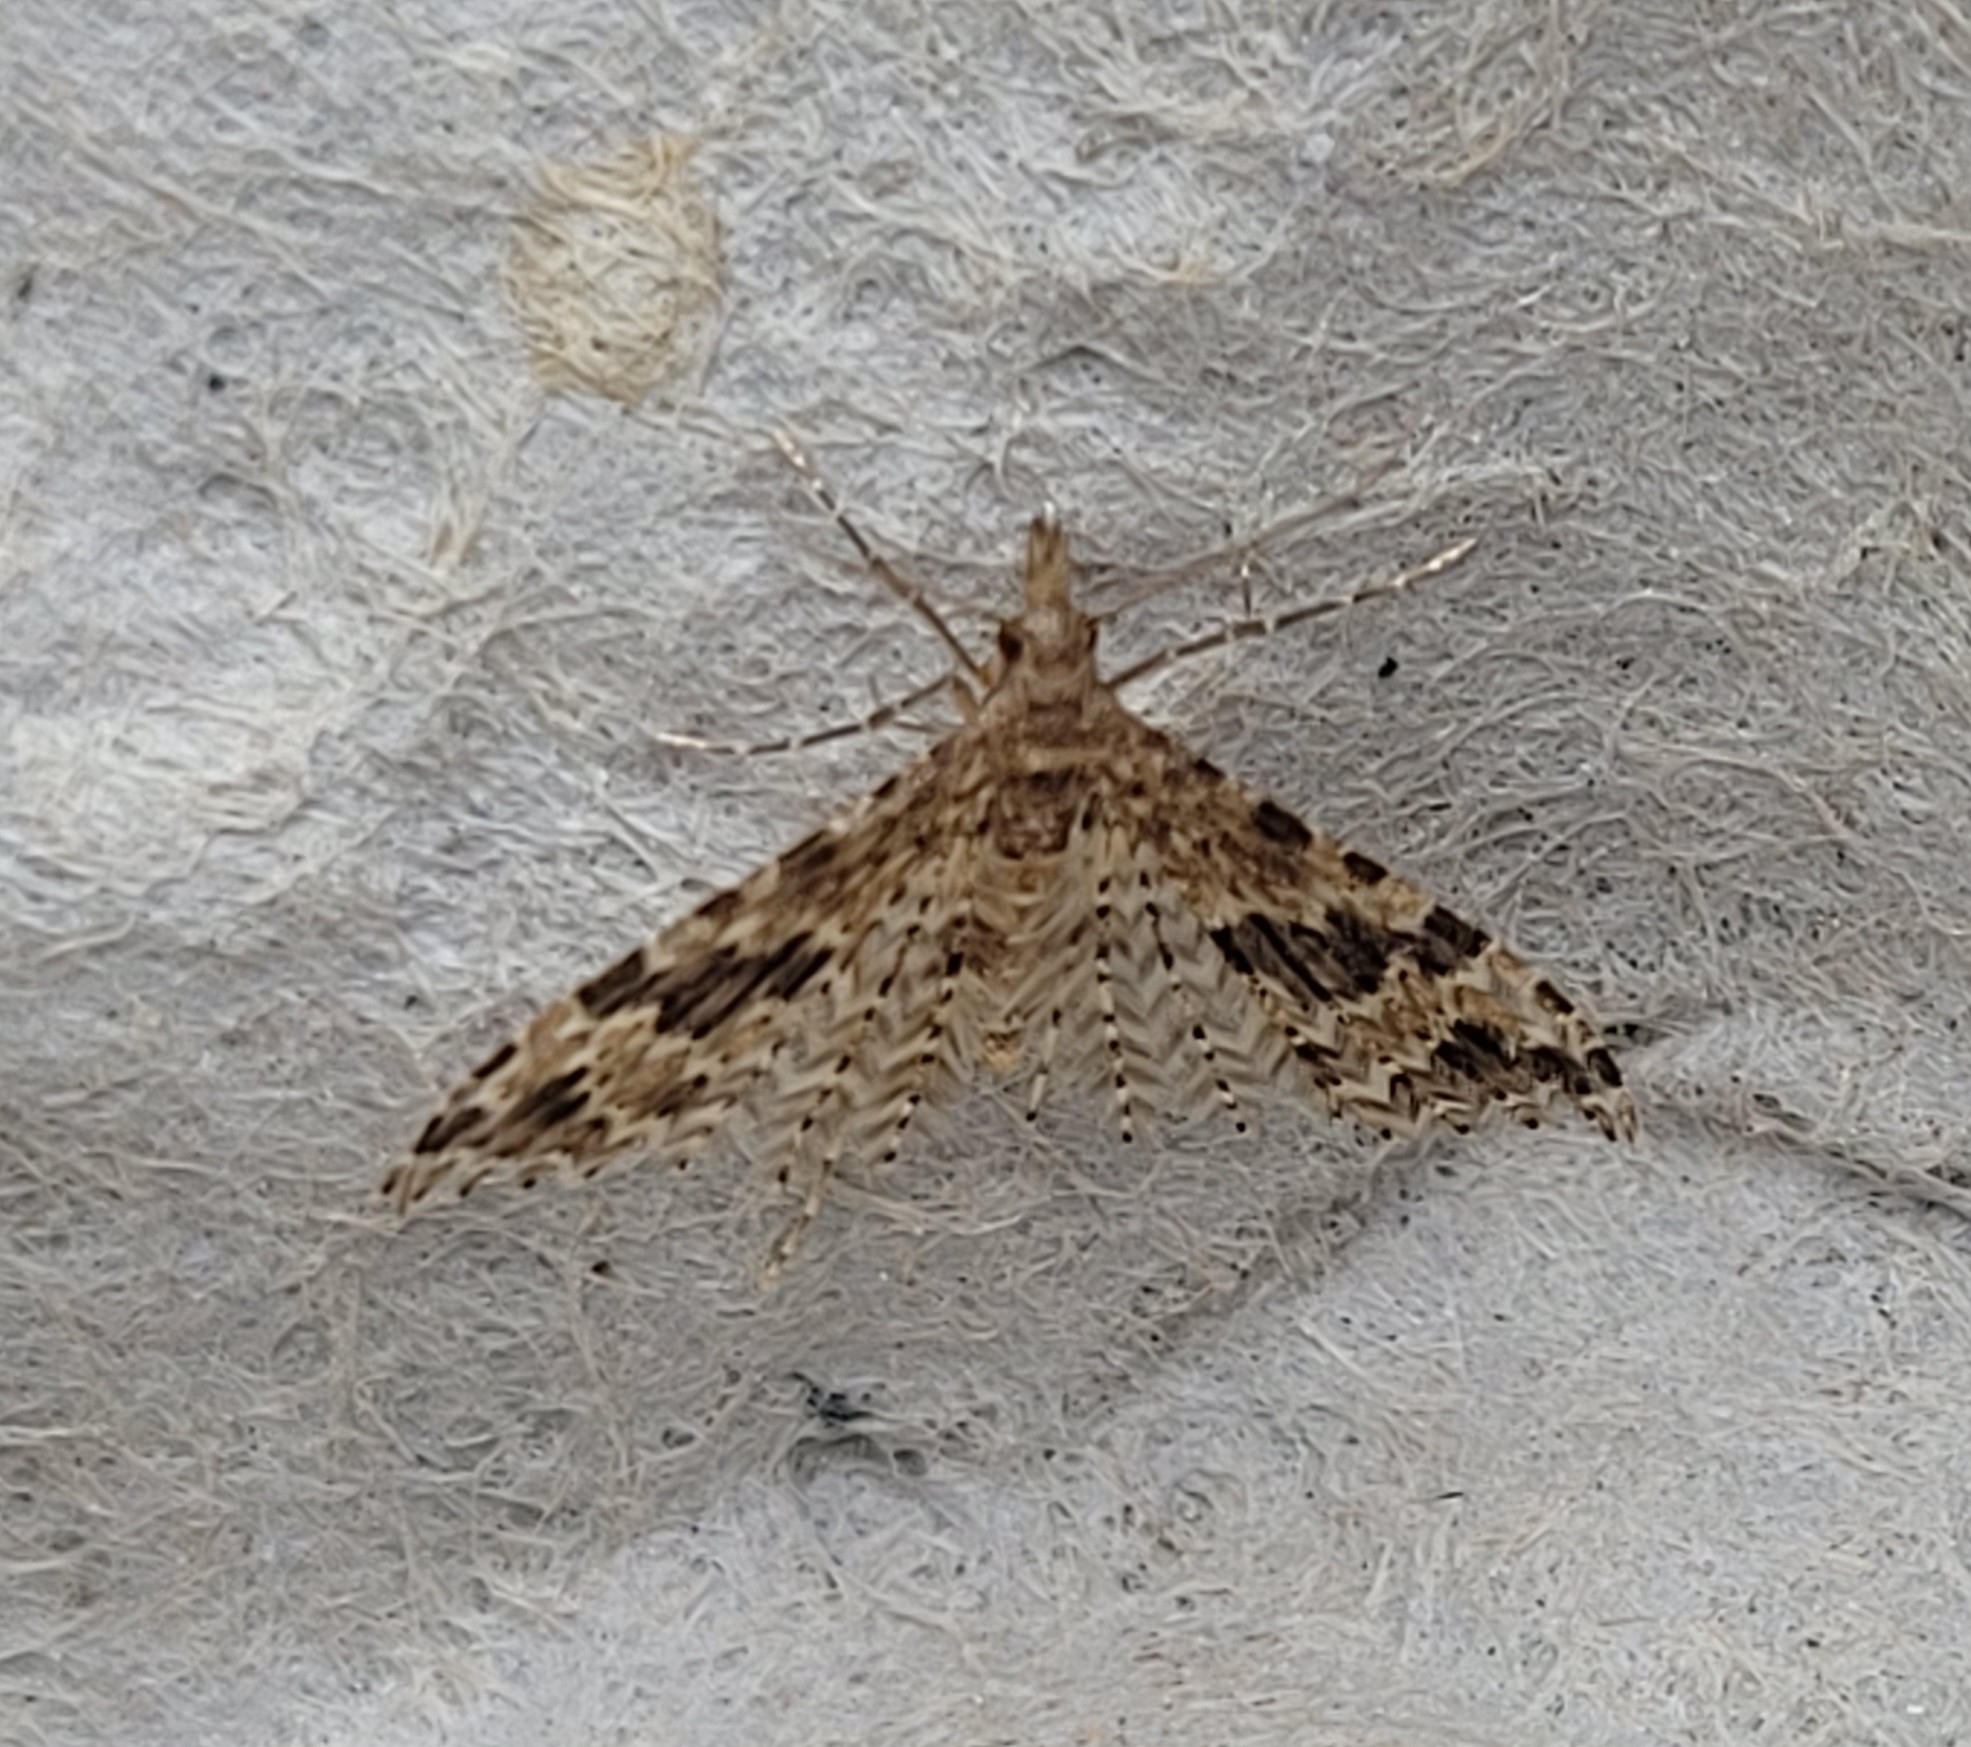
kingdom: Animalia
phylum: Arthropoda
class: Insecta
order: Lepidoptera
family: Alucitidae
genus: Alucita
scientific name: Alucita hexadactyla
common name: Twenty-plume moth
